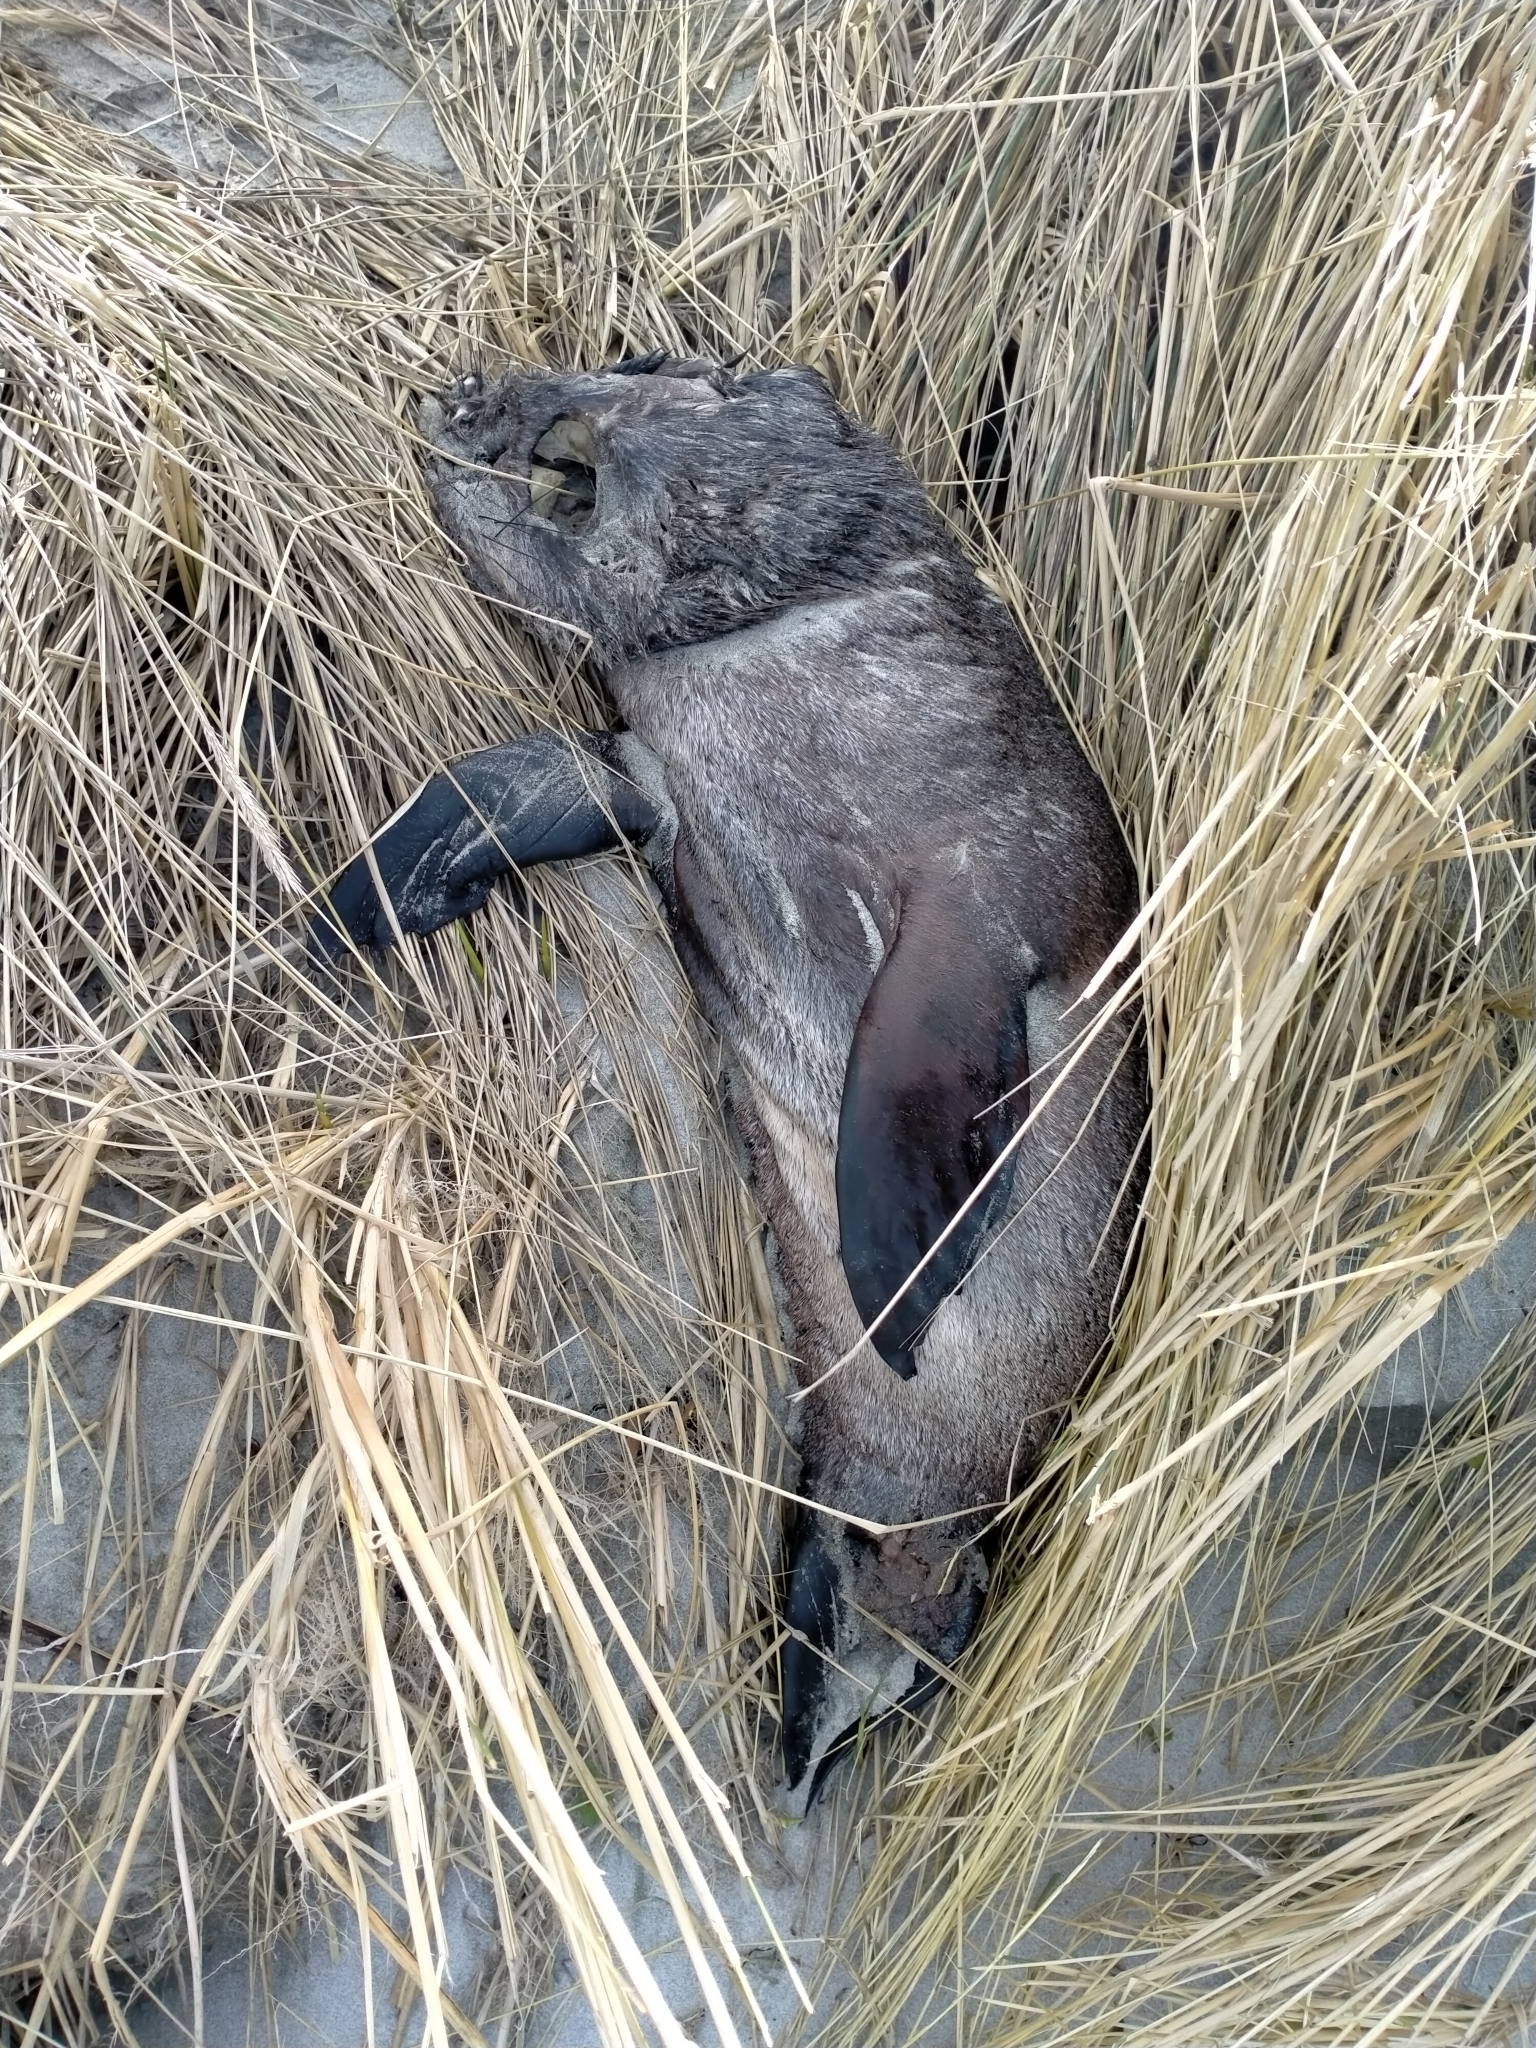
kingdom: Animalia
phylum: Chordata
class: Mammalia
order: Carnivora
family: Otariidae
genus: Arctocephalus
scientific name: Arctocephalus forsteri
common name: New zealand fur seal
